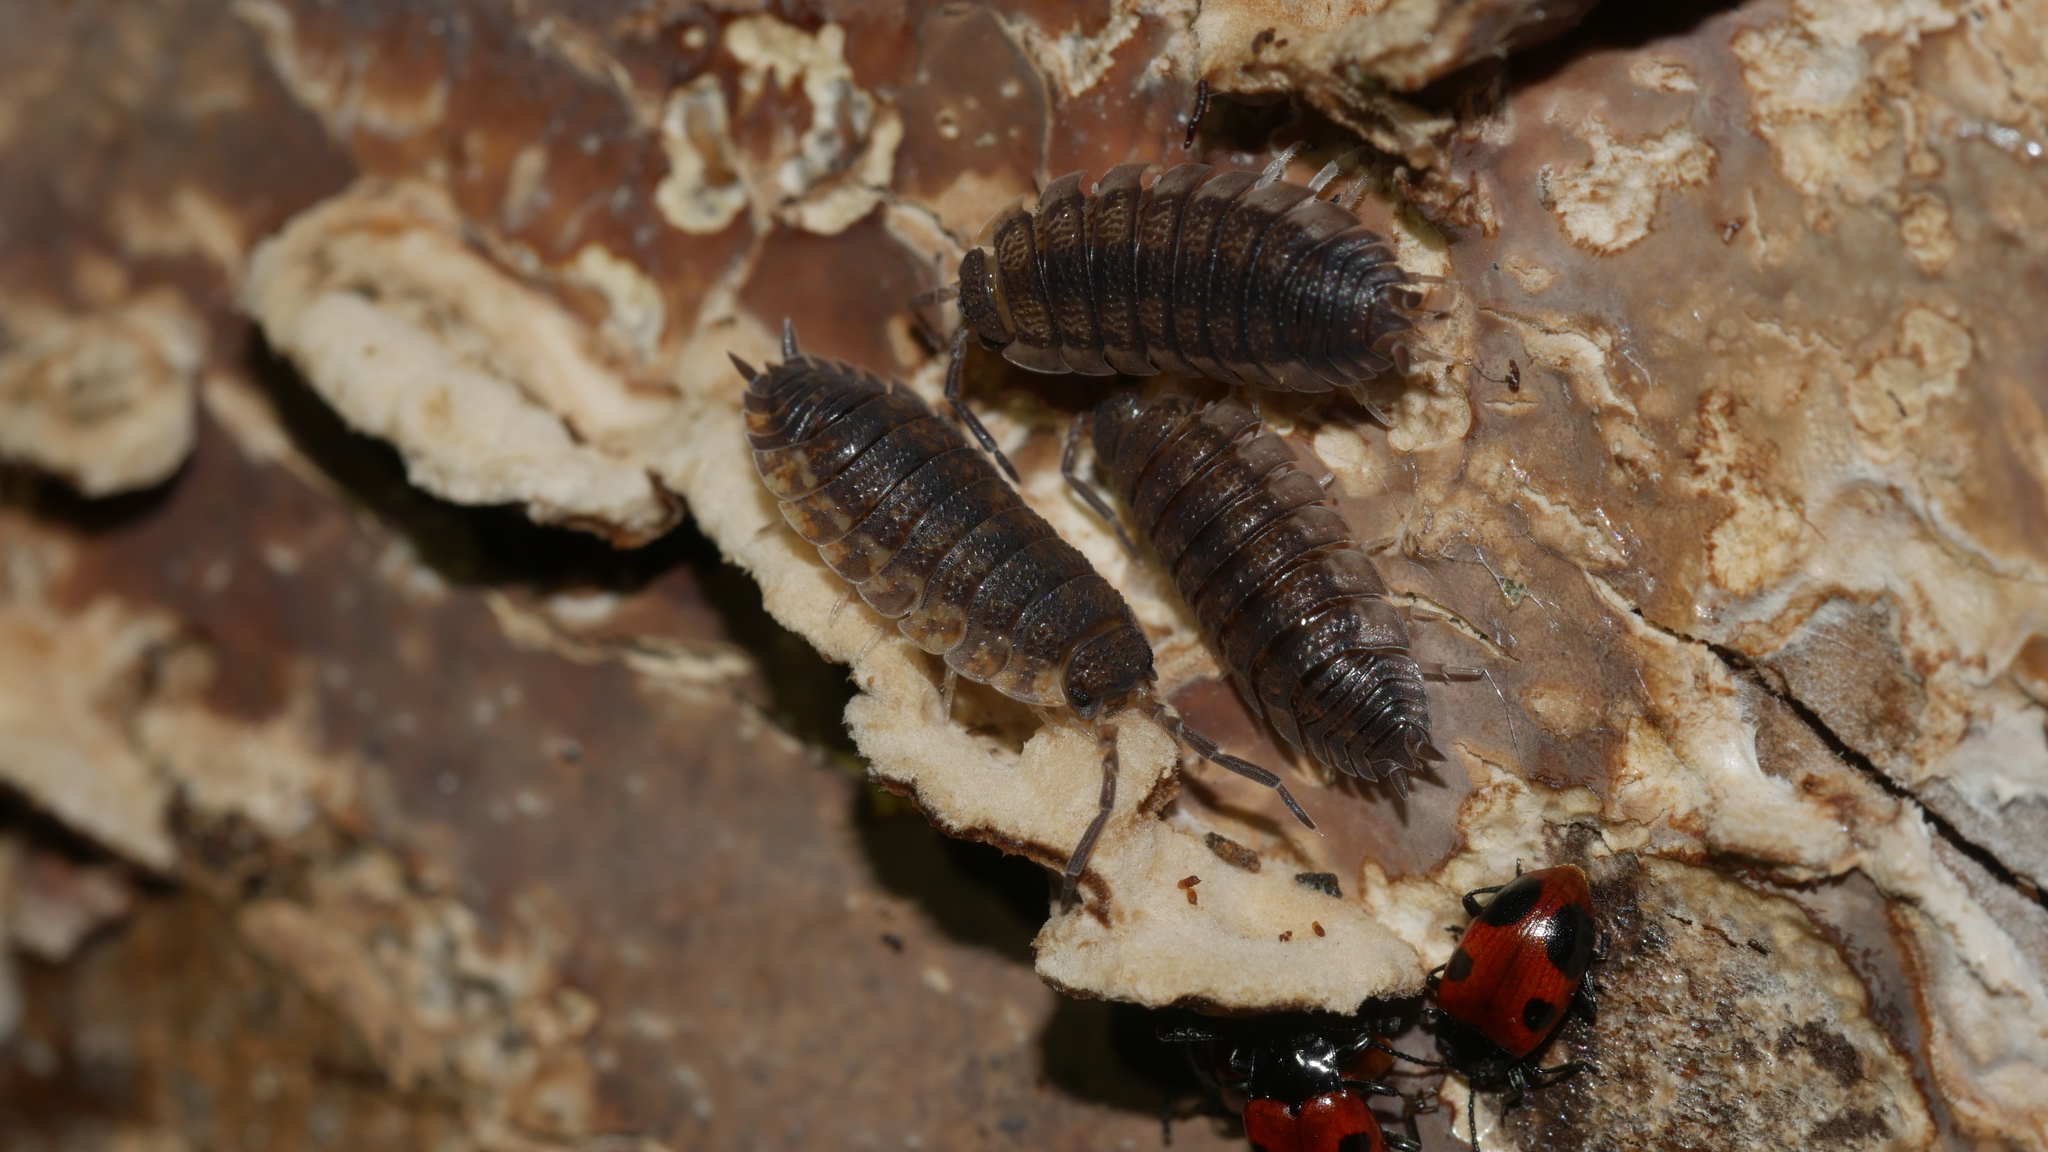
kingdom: Animalia
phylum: Arthropoda
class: Malacostraca
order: Isopoda
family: Porcellionidae
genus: Porcellio
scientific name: Porcellio scaber
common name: Common rough woodlouse
